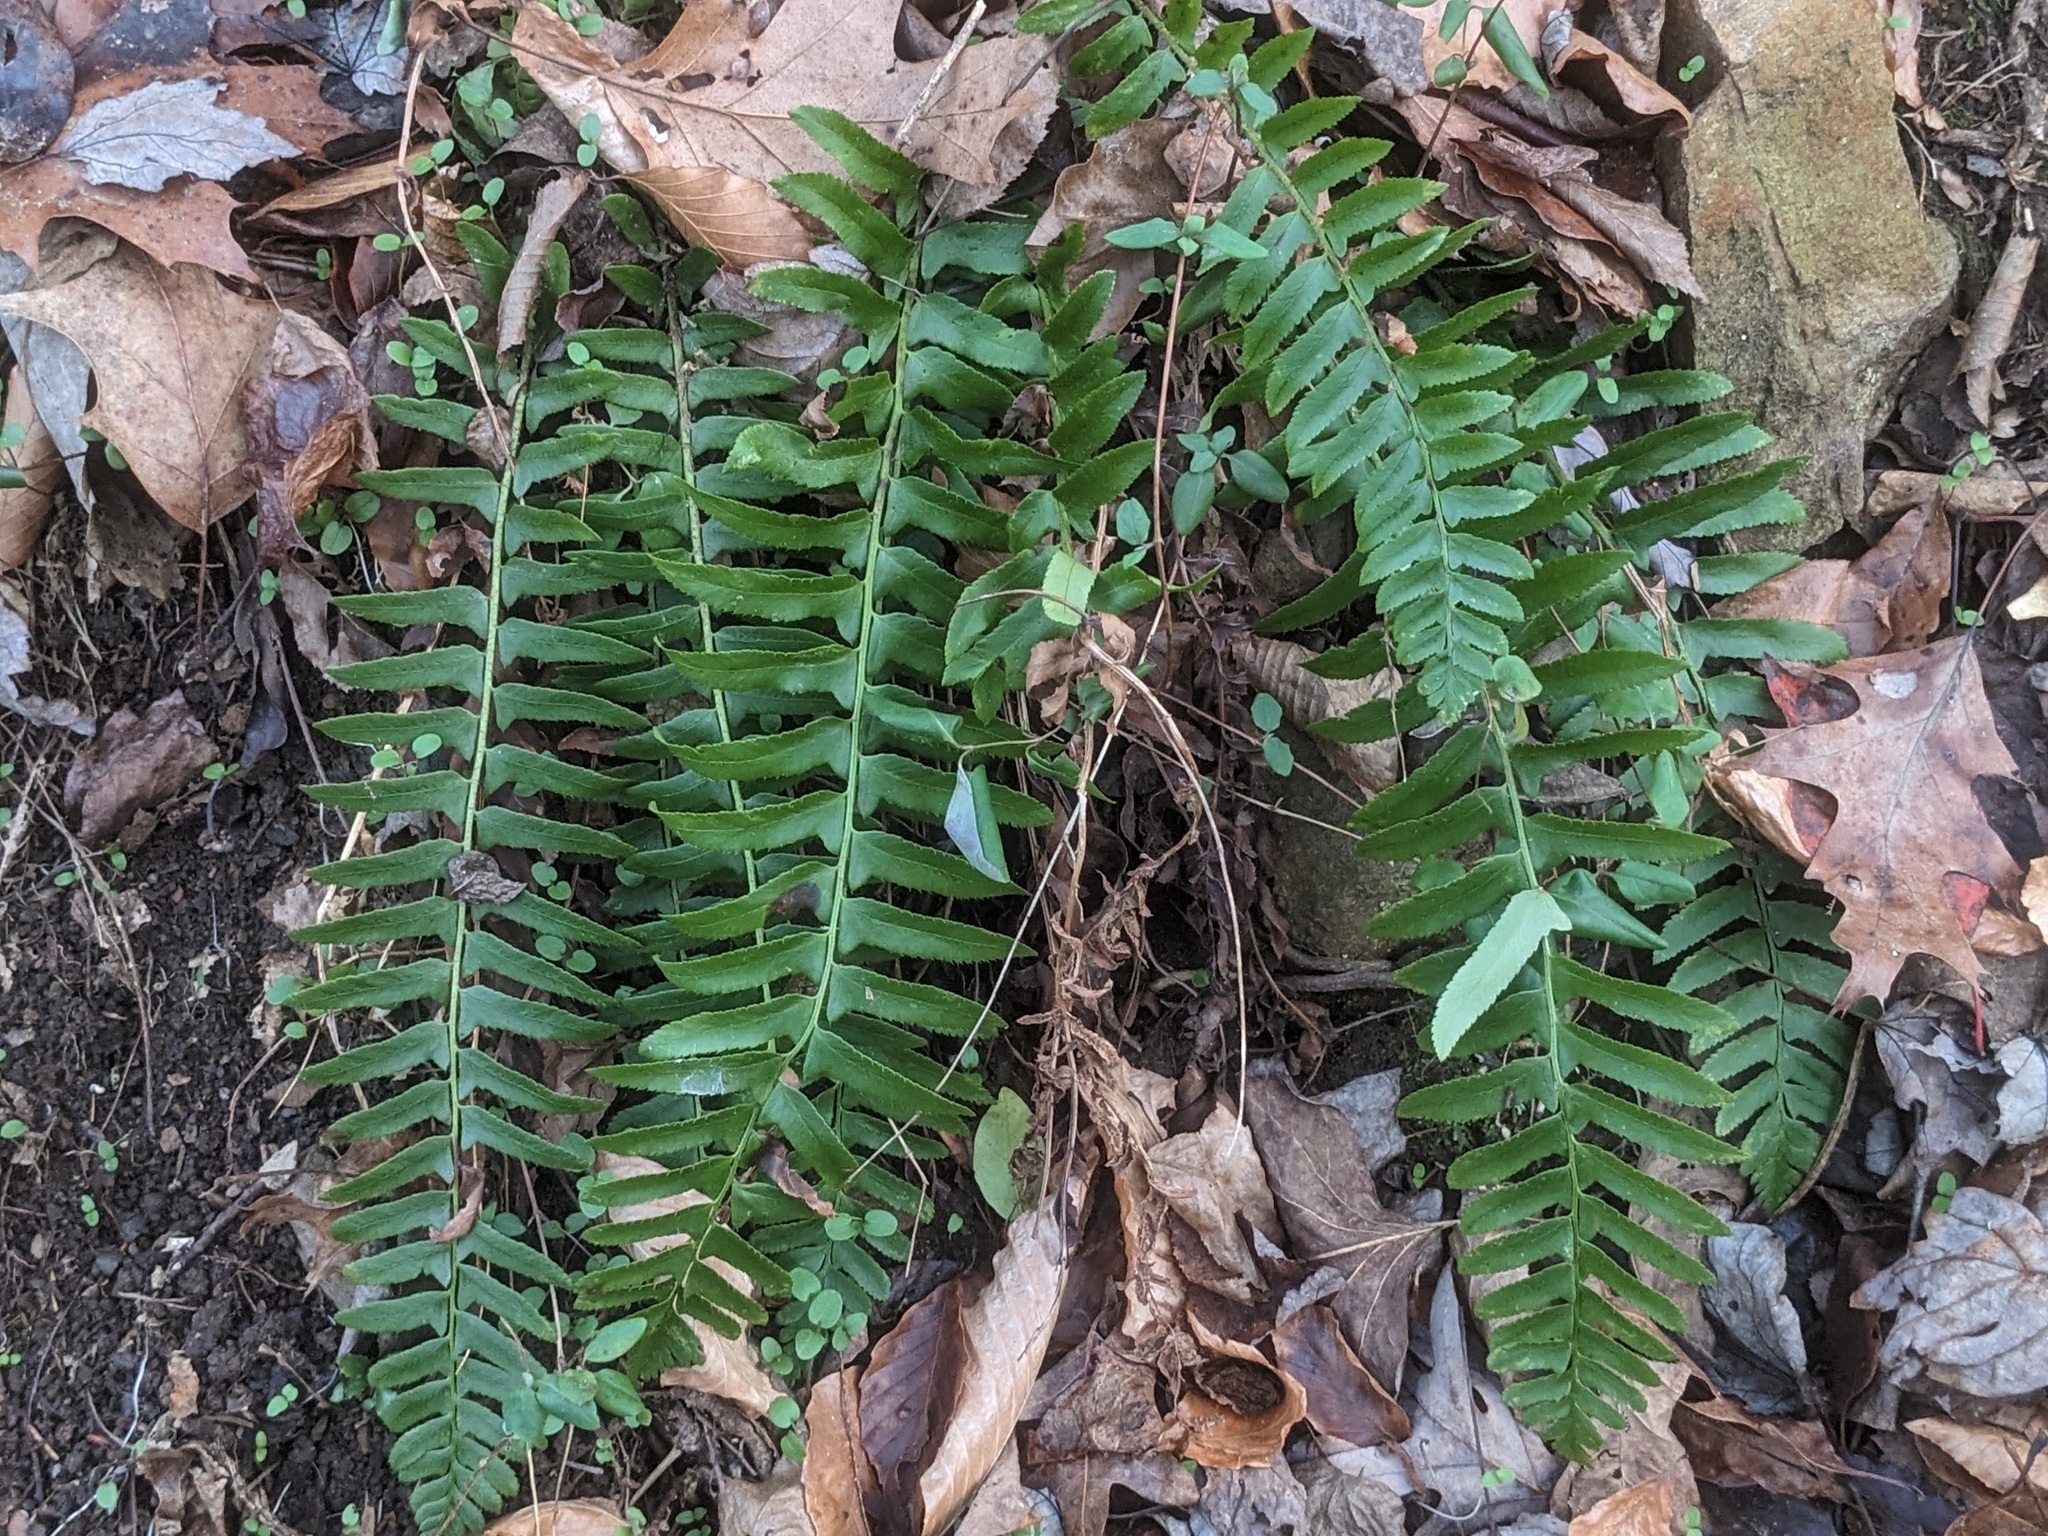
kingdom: Plantae
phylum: Tracheophyta
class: Polypodiopsida
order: Polypodiales
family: Dryopteridaceae
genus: Polystichum
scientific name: Polystichum acrostichoides
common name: Christmas fern
